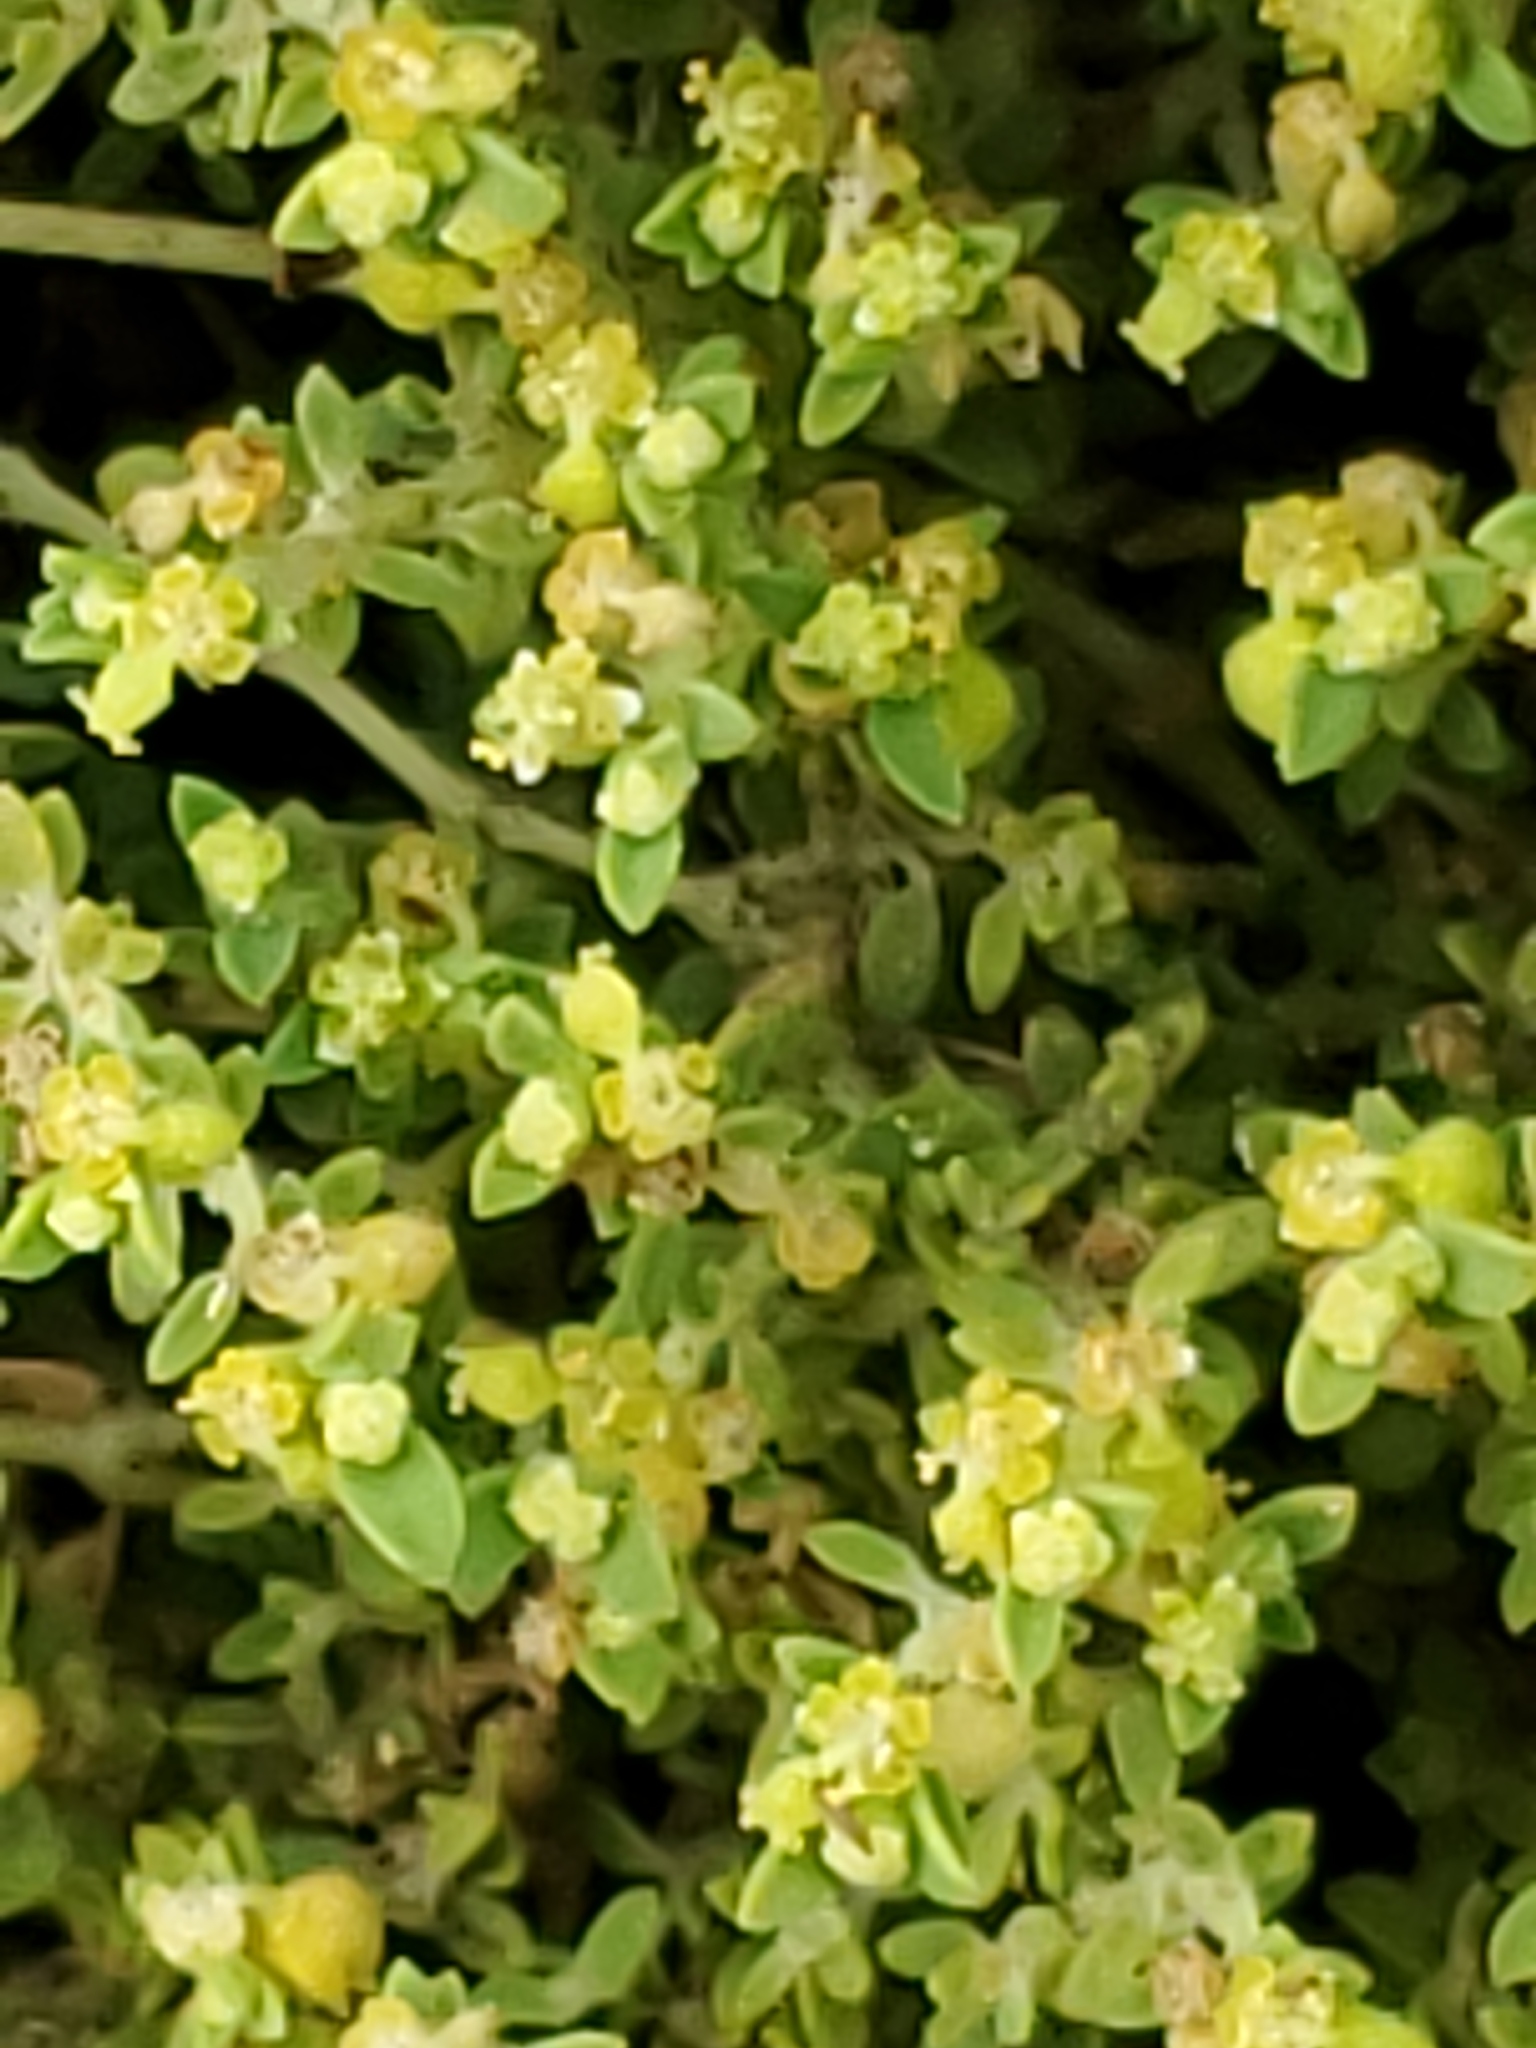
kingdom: Plantae
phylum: Tracheophyta
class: Magnoliopsida
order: Malpighiales
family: Euphorbiaceae
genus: Euphorbia
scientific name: Euphorbia polycarpa
